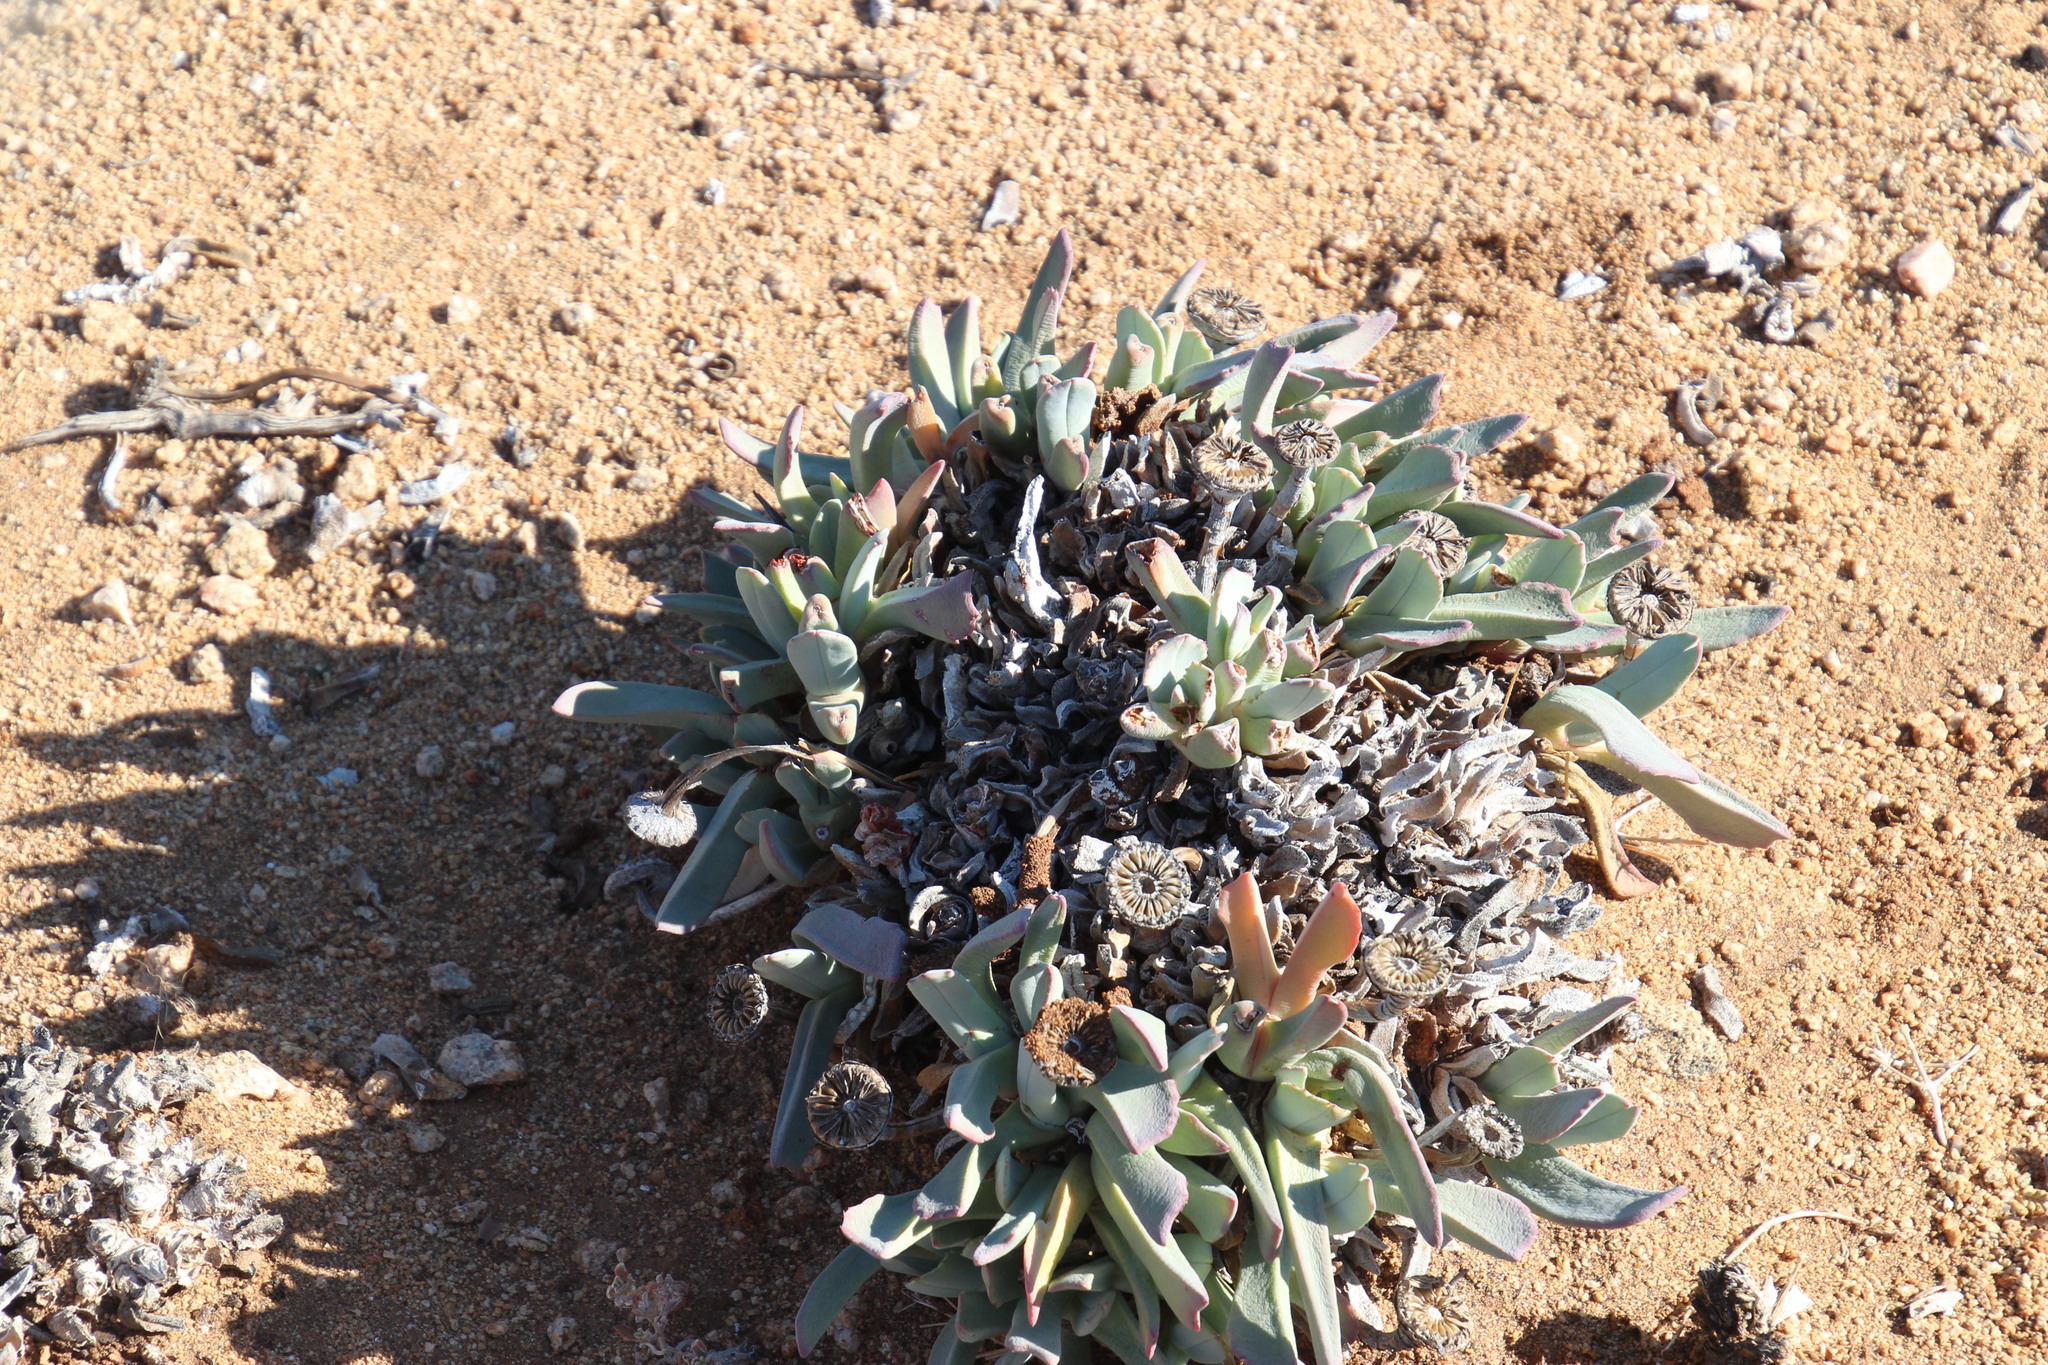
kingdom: Plantae
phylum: Tracheophyta
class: Magnoliopsida
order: Caryophyllales
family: Aizoaceae
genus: Cheiridopsis
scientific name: Cheiridopsis denticulata
